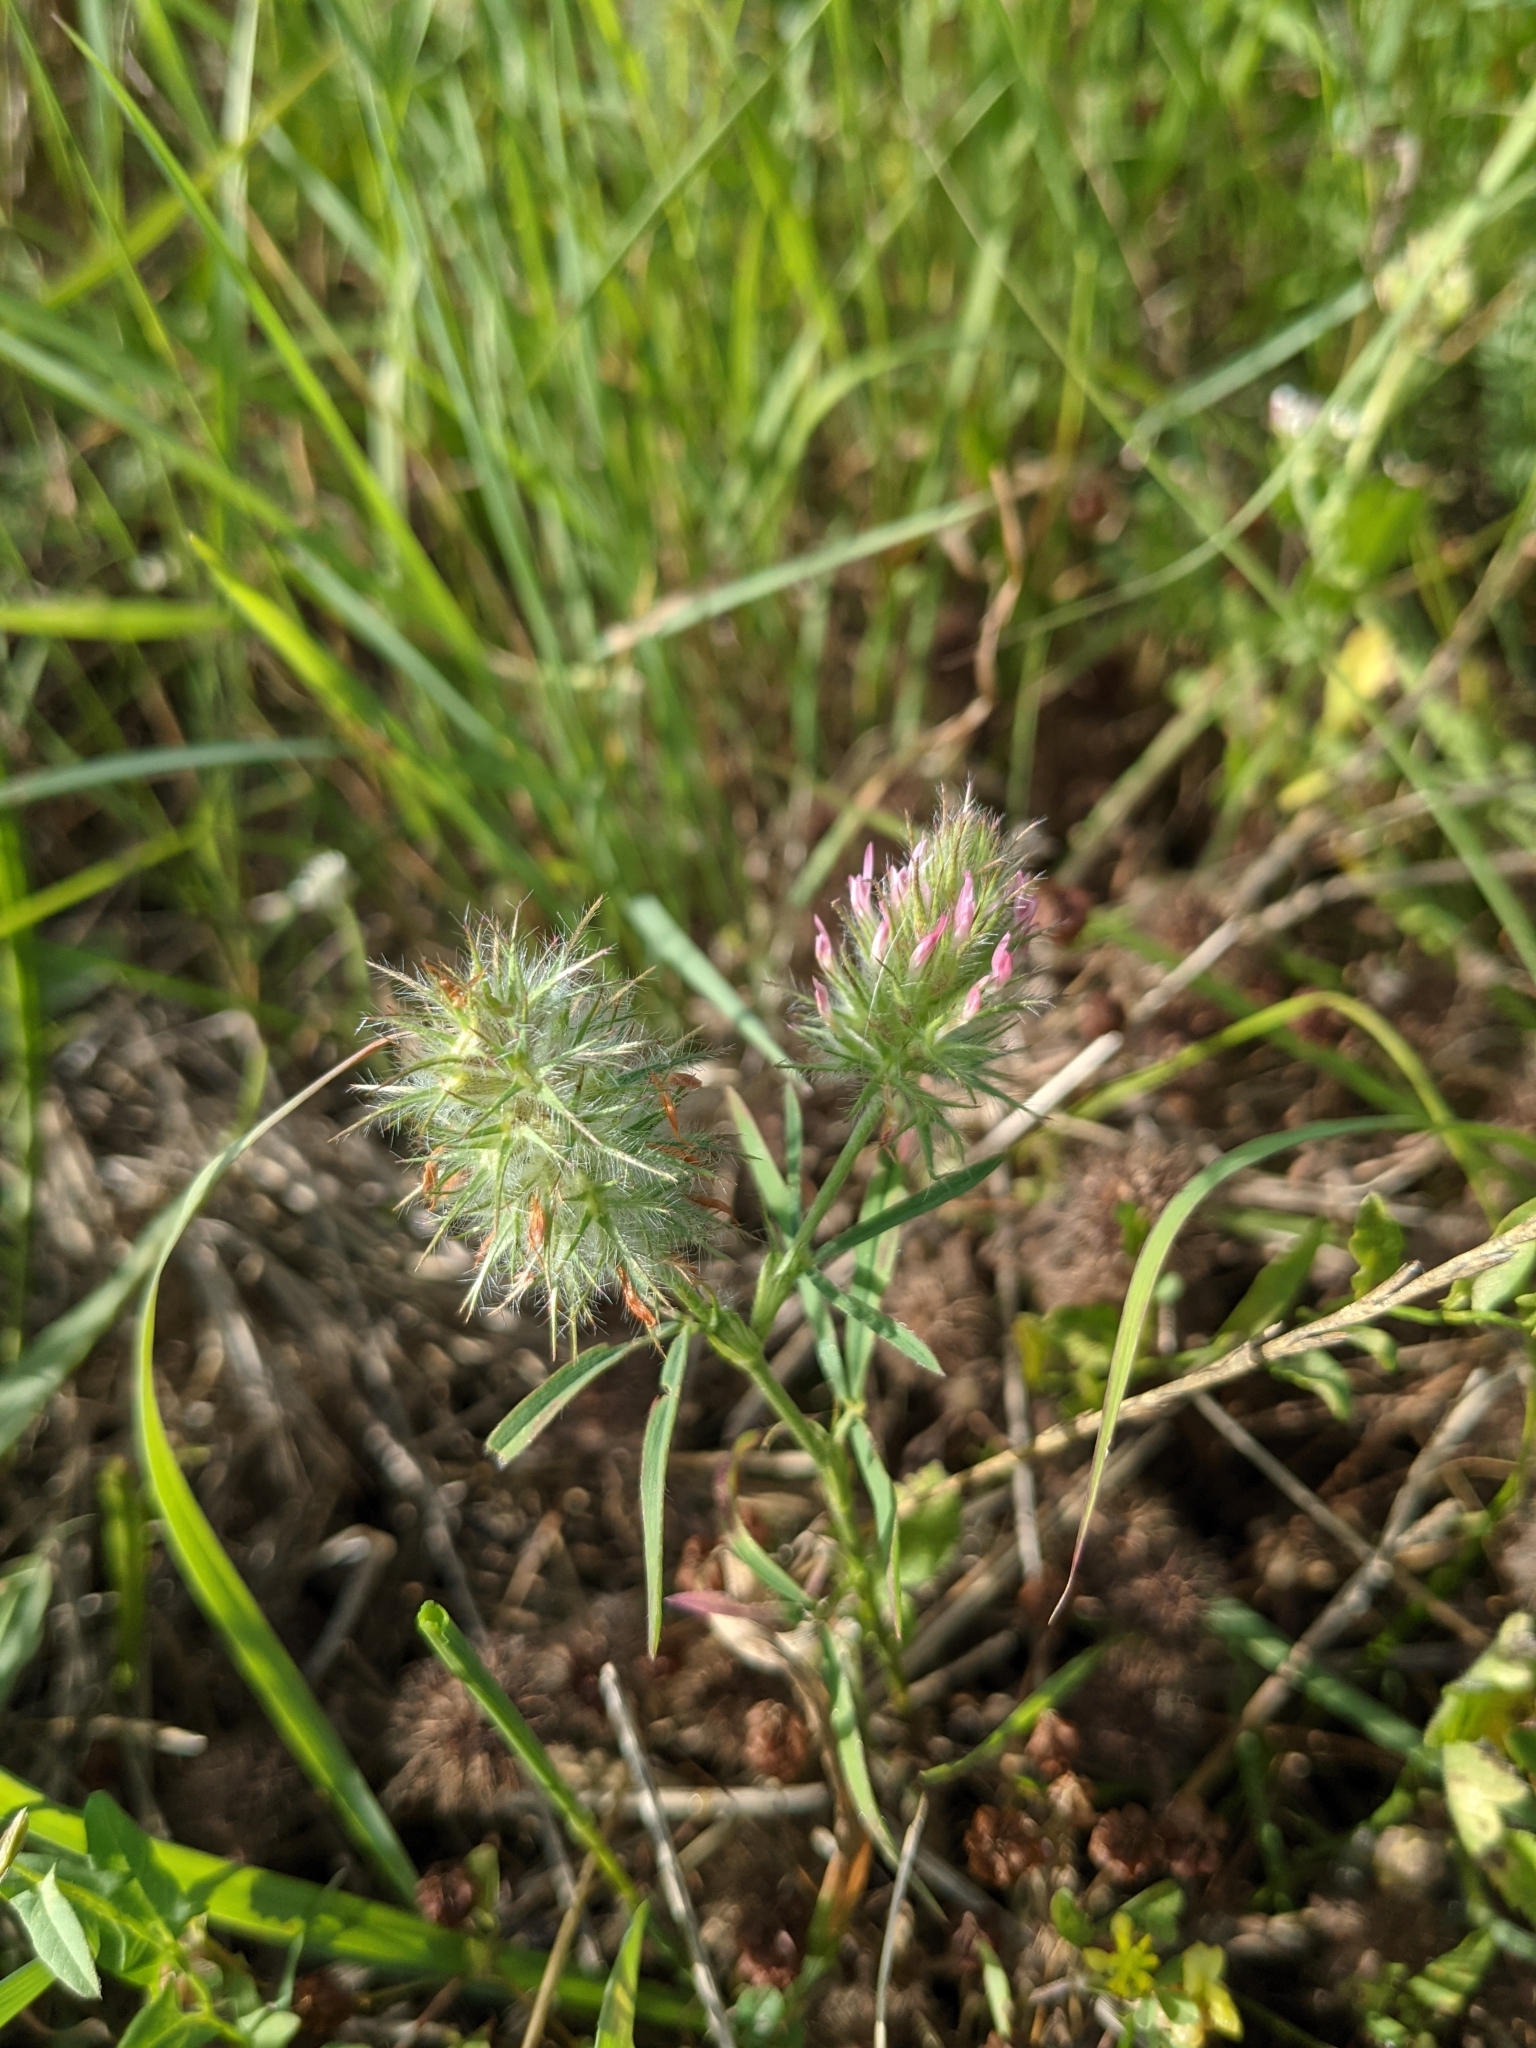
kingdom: Plantae
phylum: Tracheophyta
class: Magnoliopsida
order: Fabales
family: Fabaceae
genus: Trifolium
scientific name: Trifolium angustifolium
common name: Narrow clover
